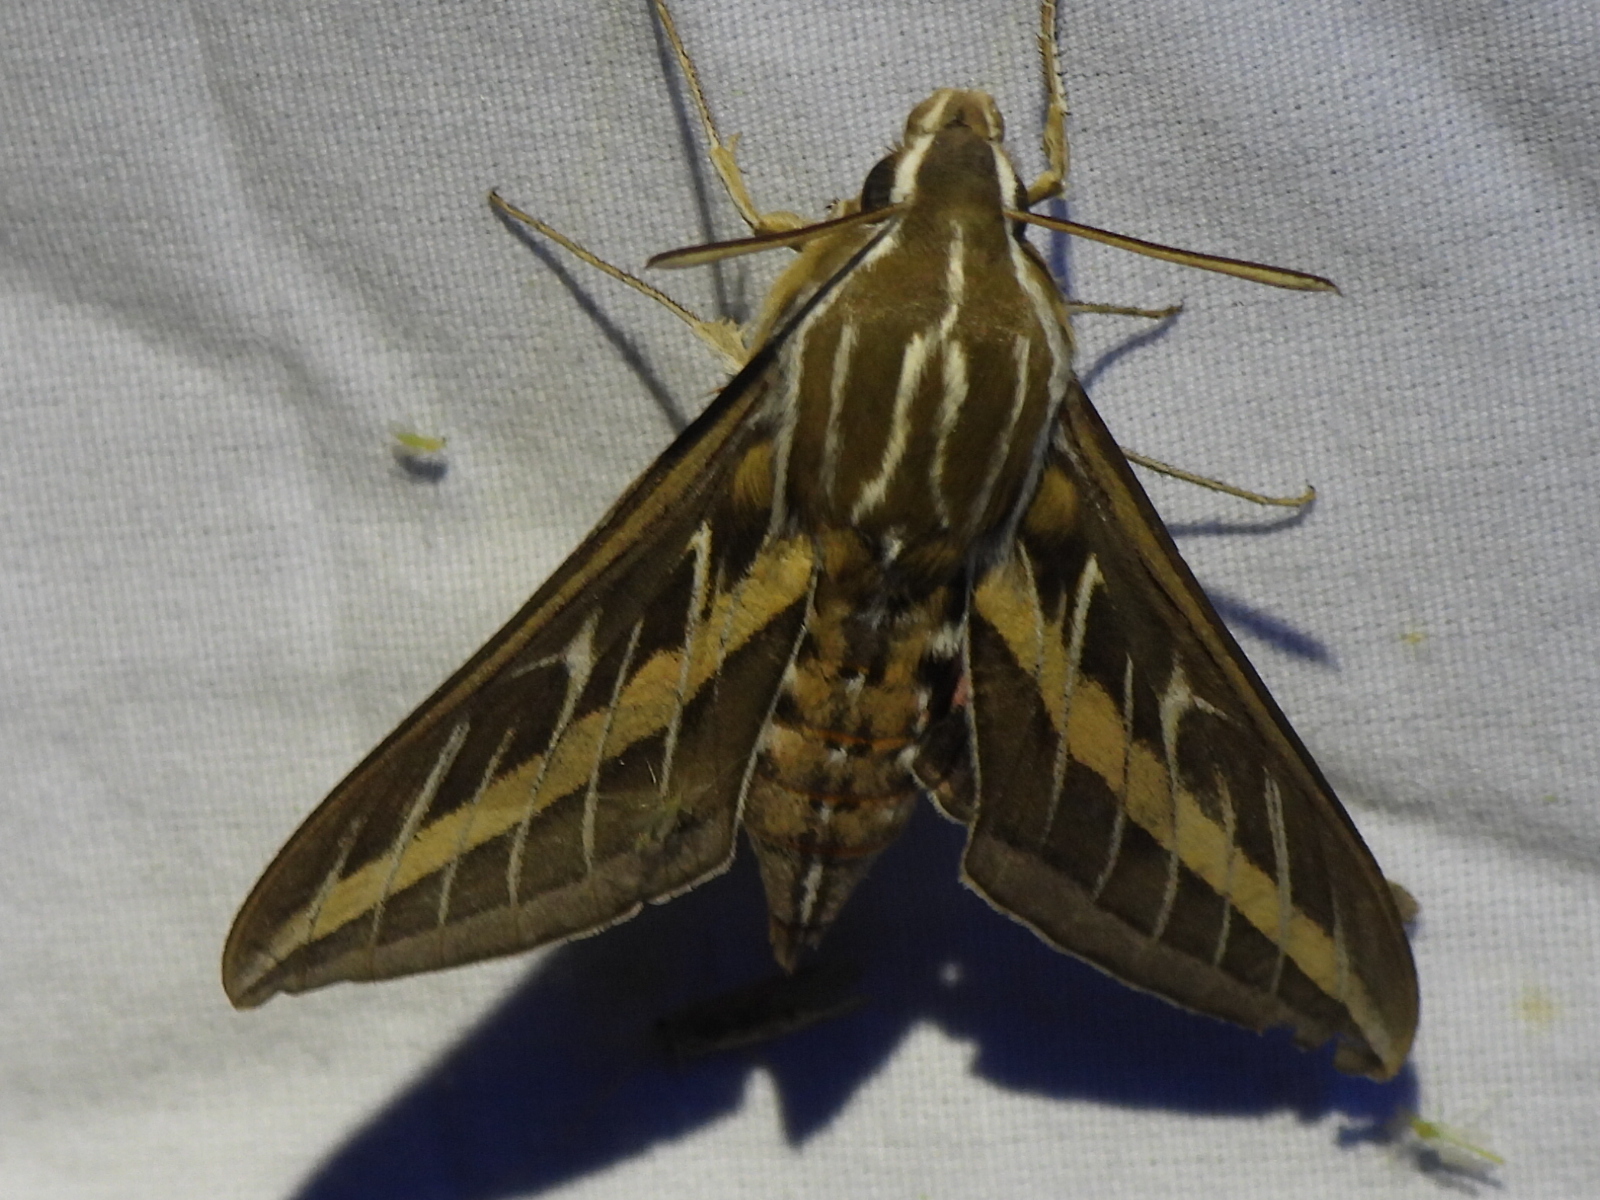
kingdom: Animalia
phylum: Arthropoda
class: Insecta
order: Lepidoptera
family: Sphingidae
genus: Hyles
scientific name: Hyles lineata
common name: White-lined sphinx
